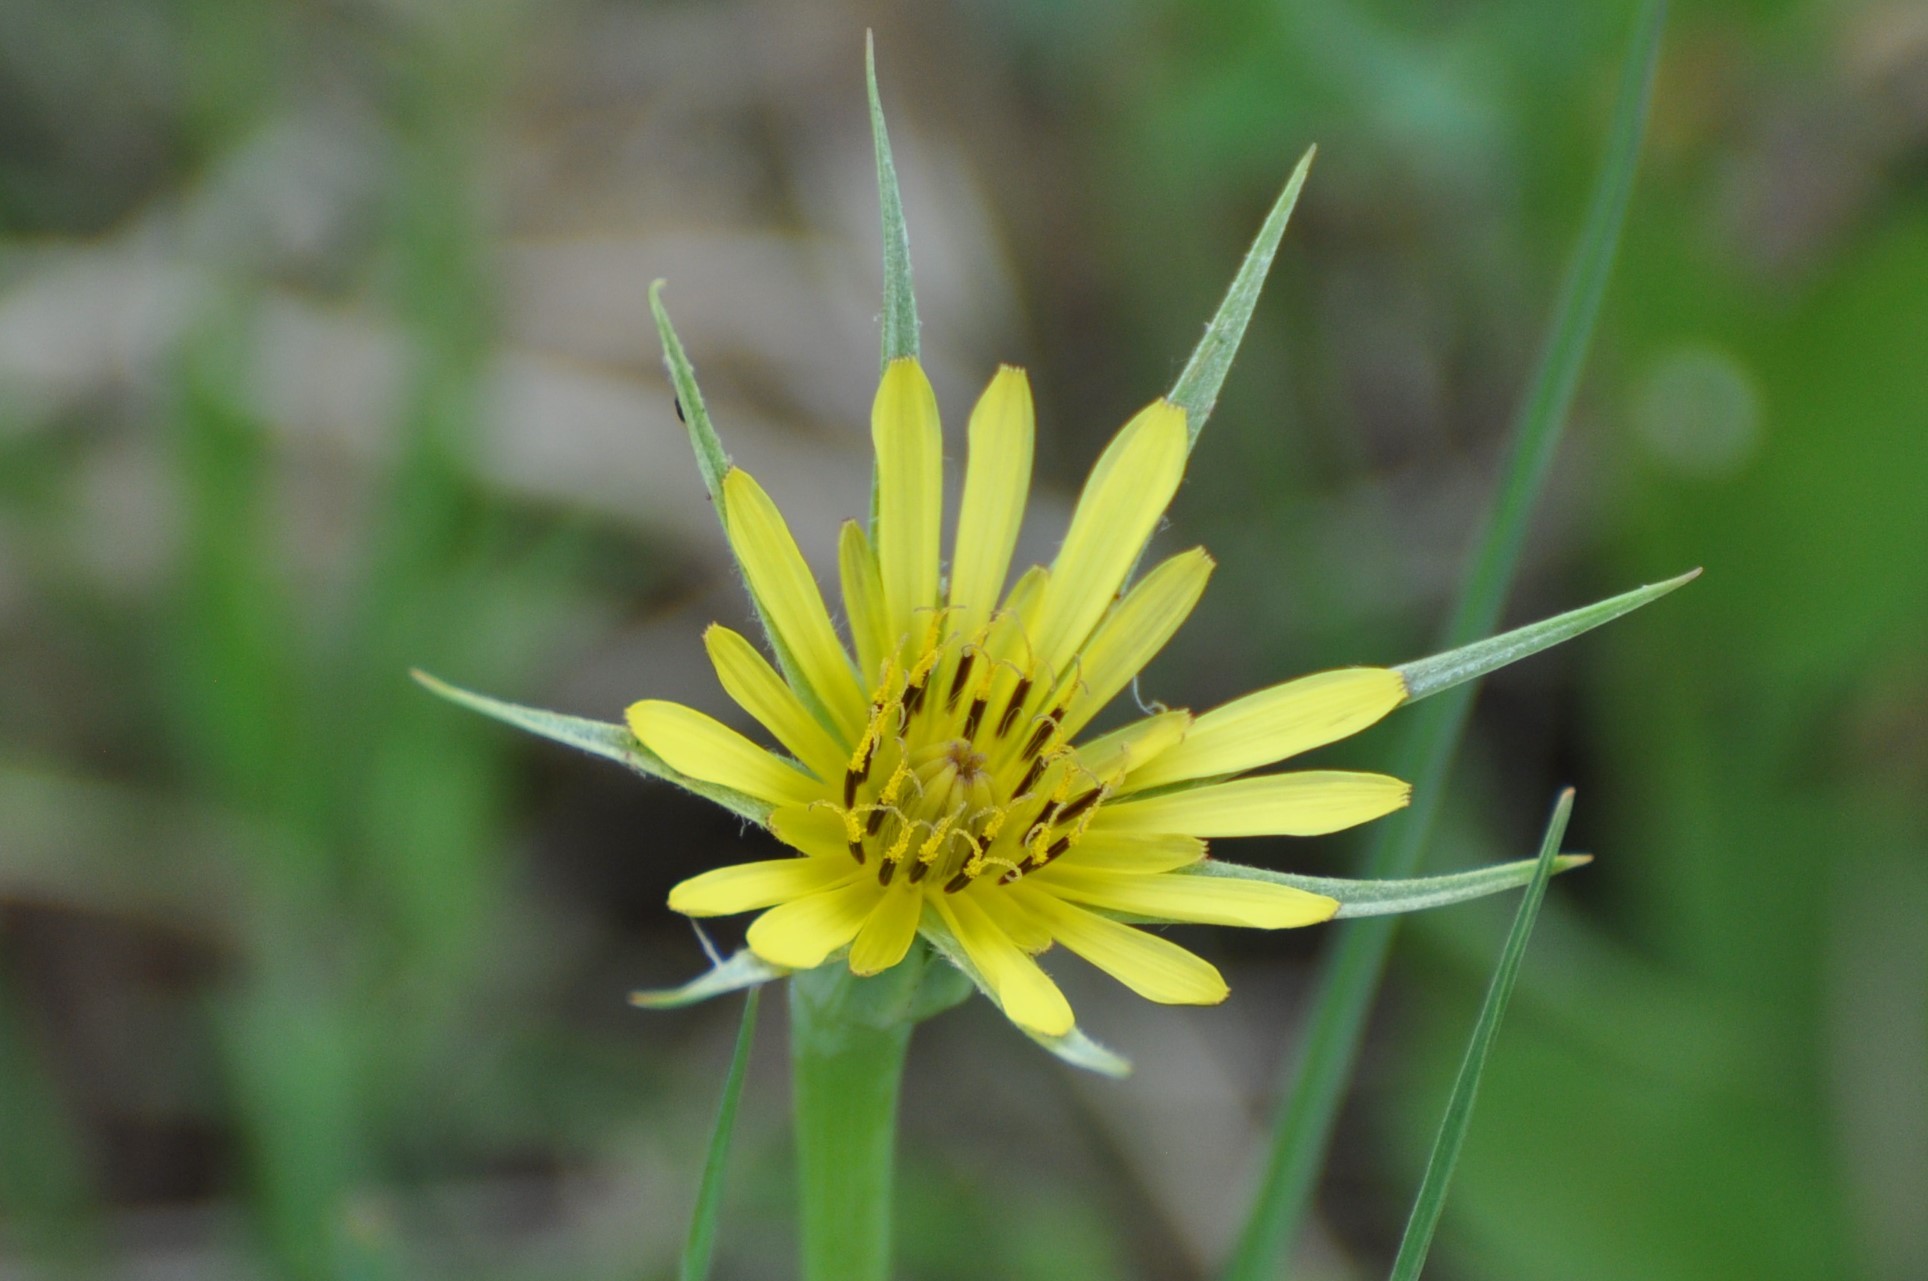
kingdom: Plantae
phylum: Tracheophyta
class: Magnoliopsida
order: Asterales
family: Asteraceae
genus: Tragopogon
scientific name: Tragopogon dubius
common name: Yellow salsify
